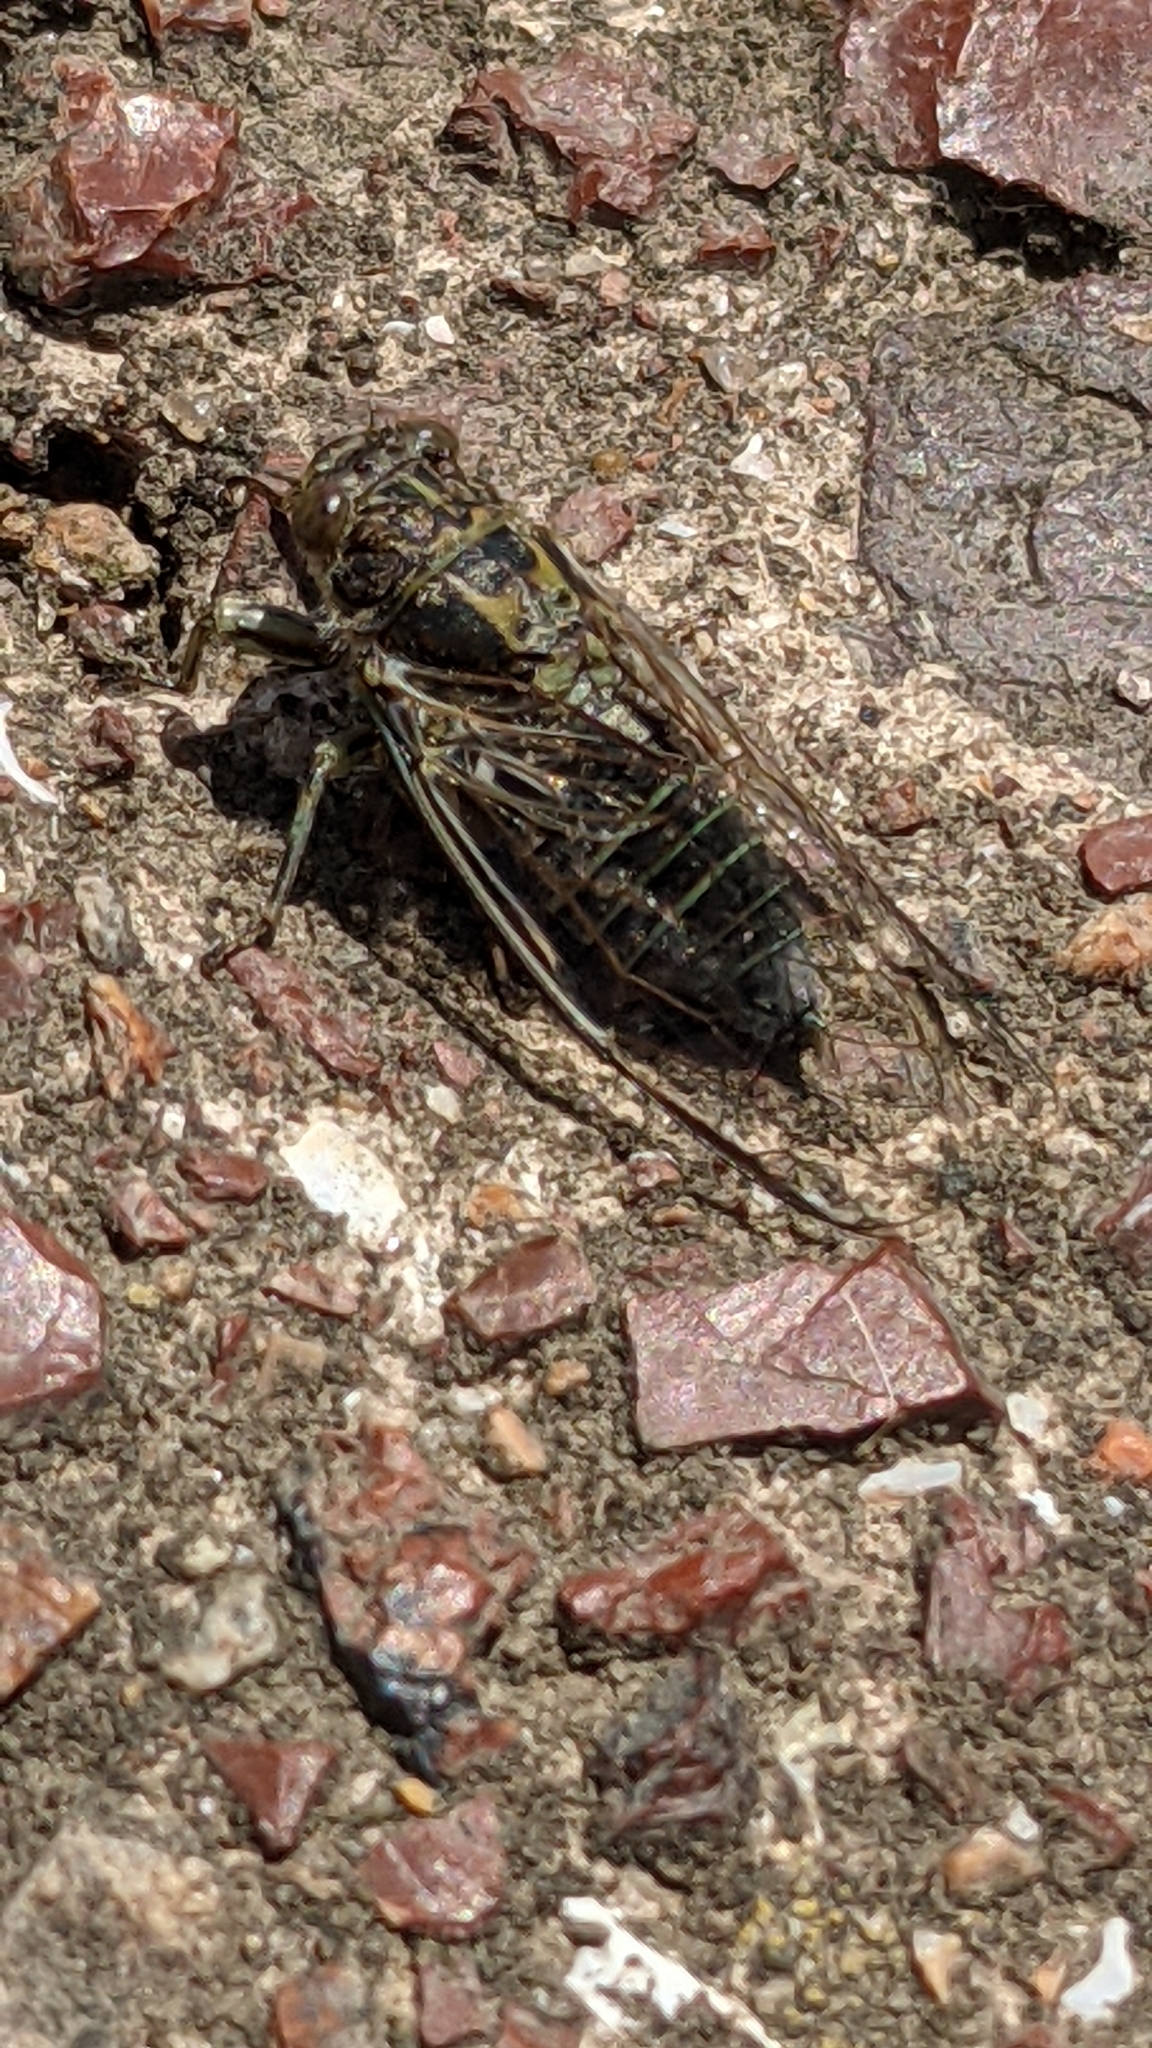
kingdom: Animalia
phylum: Arthropoda
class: Insecta
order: Hemiptera
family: Cicadidae
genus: Notopsalta
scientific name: Notopsalta sericea
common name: Clay bank cicada
